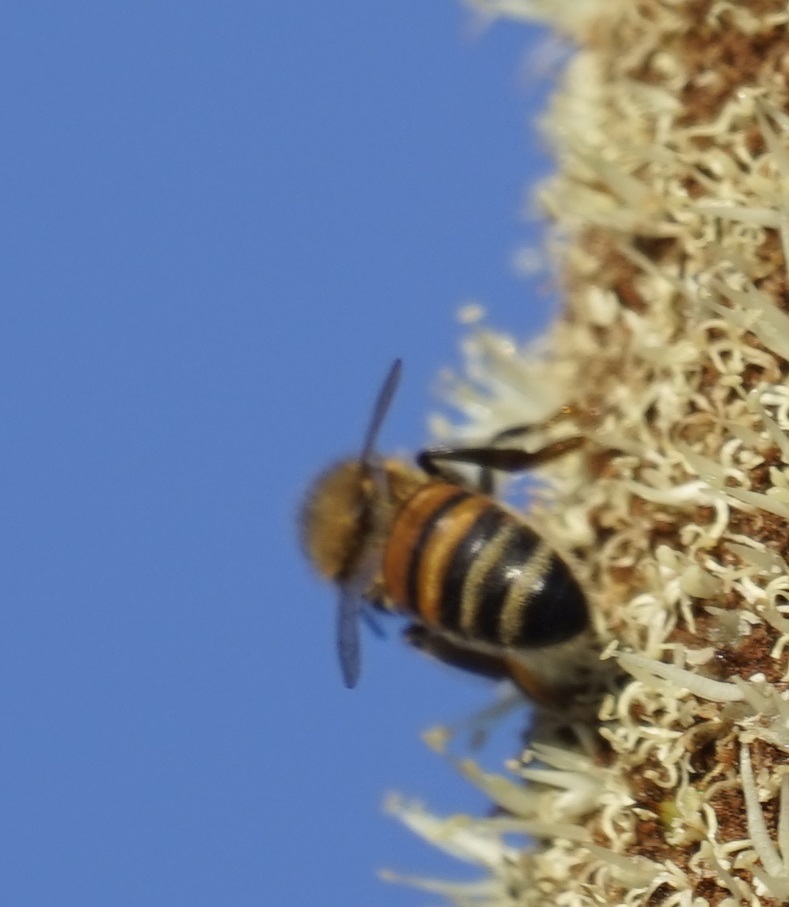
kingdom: Animalia
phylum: Arthropoda
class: Insecta
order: Hymenoptera
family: Apidae
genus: Apis
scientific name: Apis mellifera
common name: Honey bee
